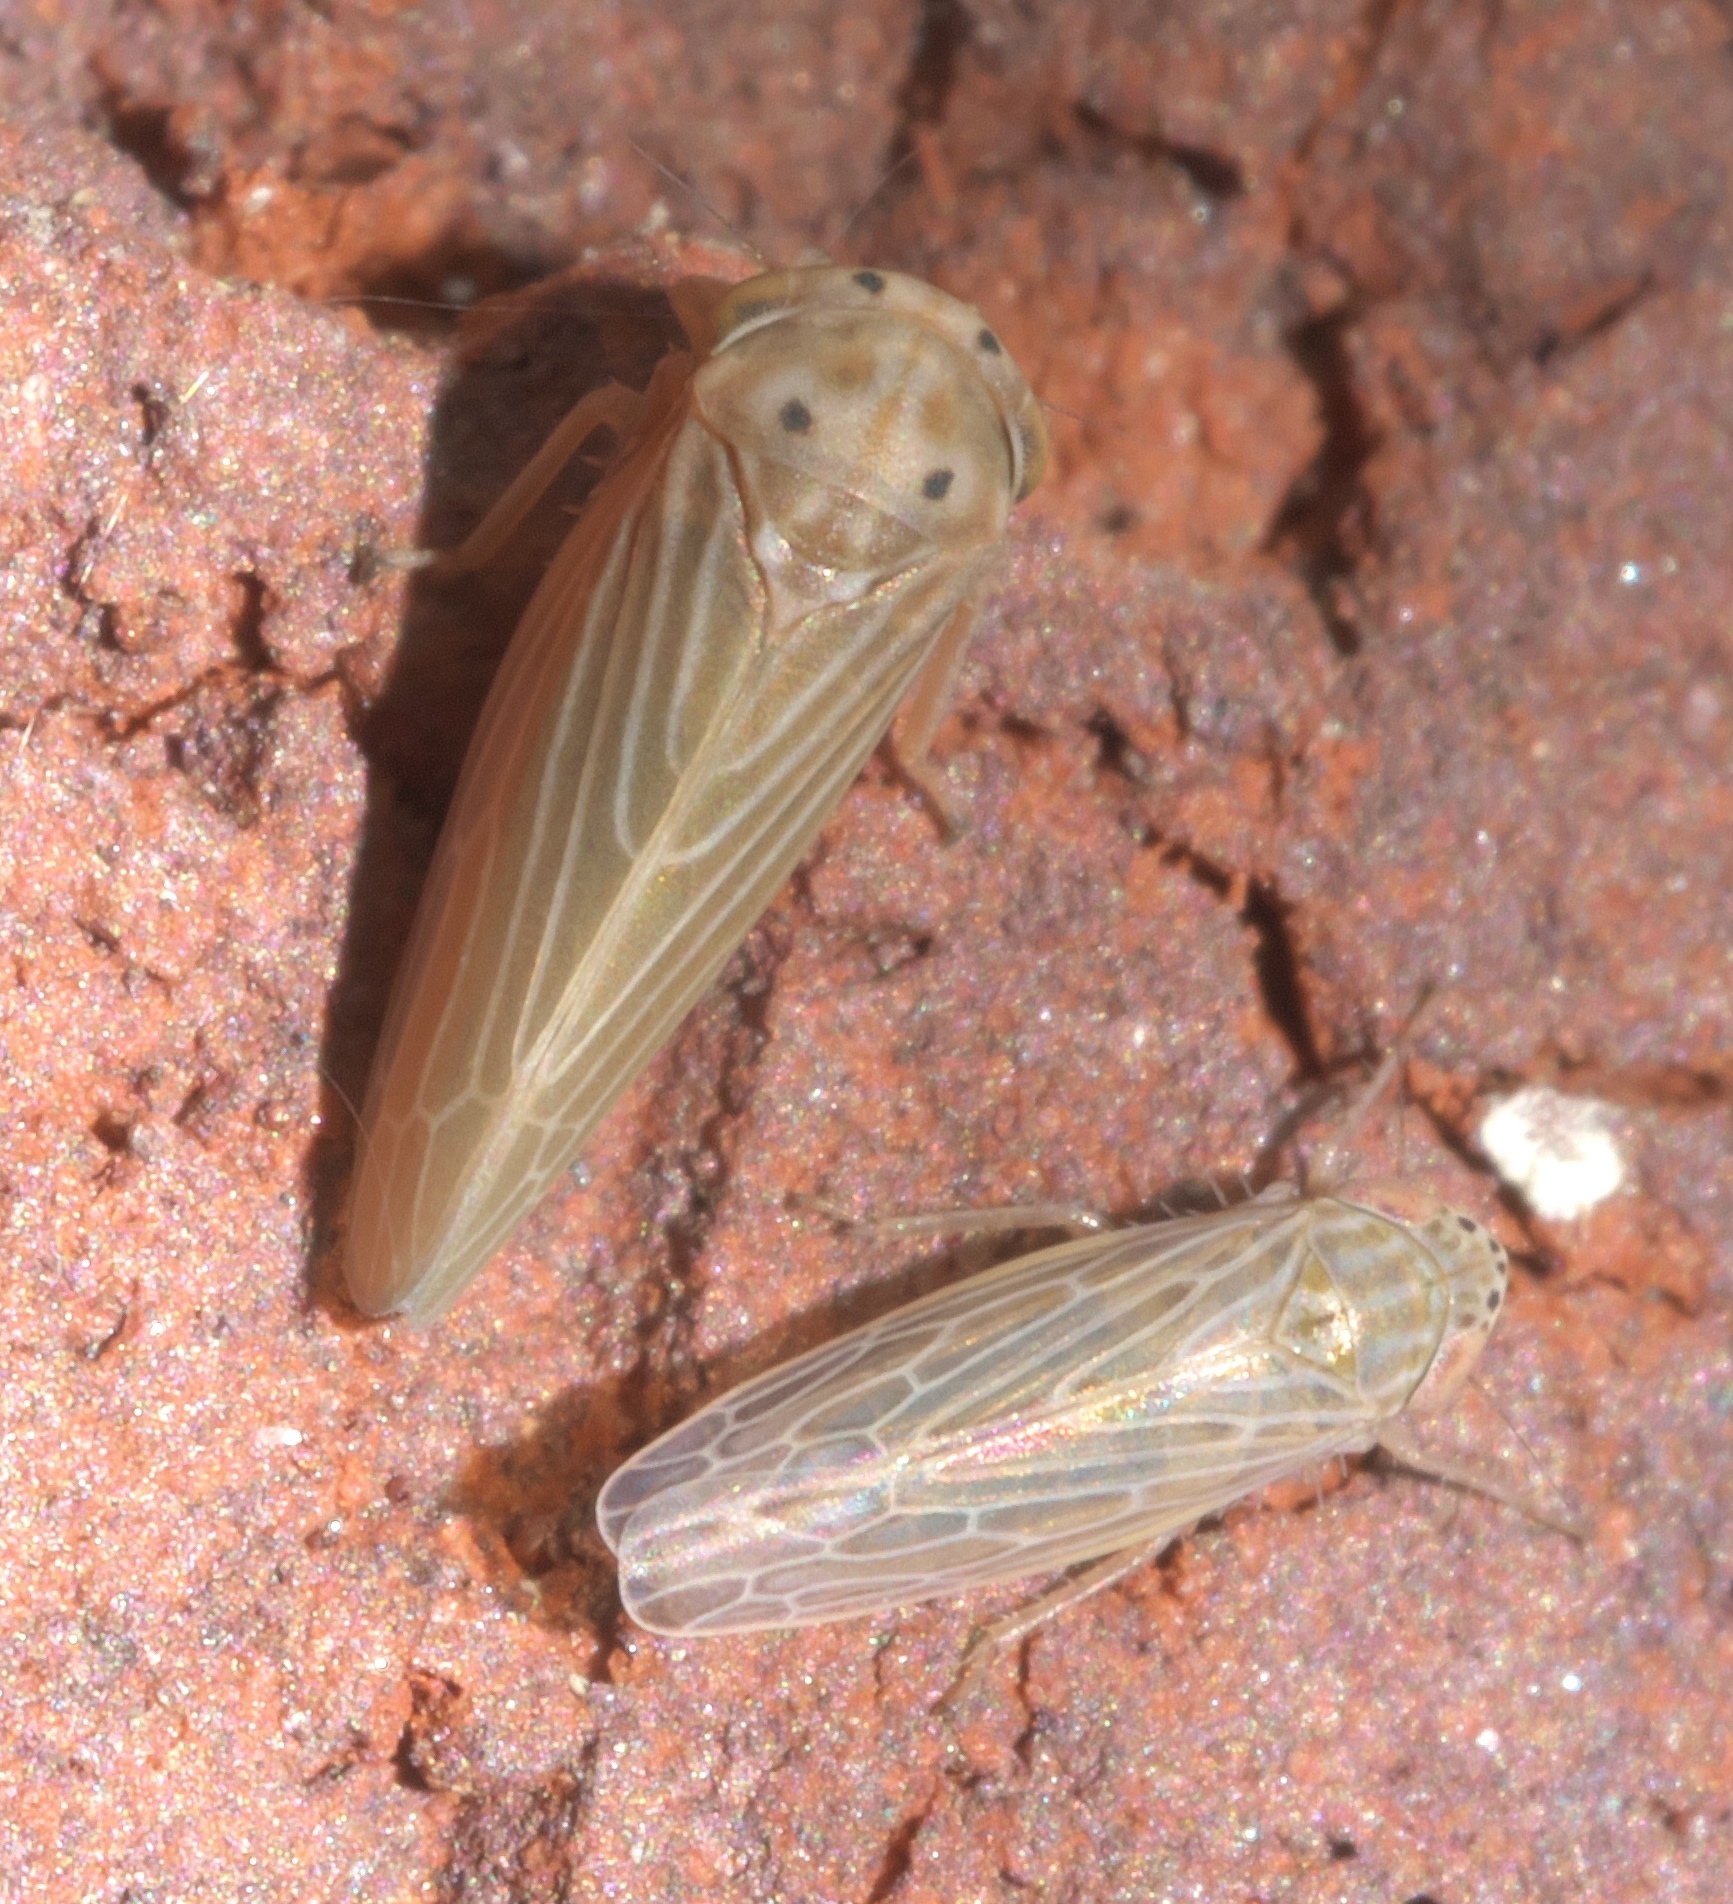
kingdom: Animalia
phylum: Arthropoda
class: Insecta
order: Hemiptera
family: Cicadellidae
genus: Agallia
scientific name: Agallia constricta
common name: The constricted leafhopper
